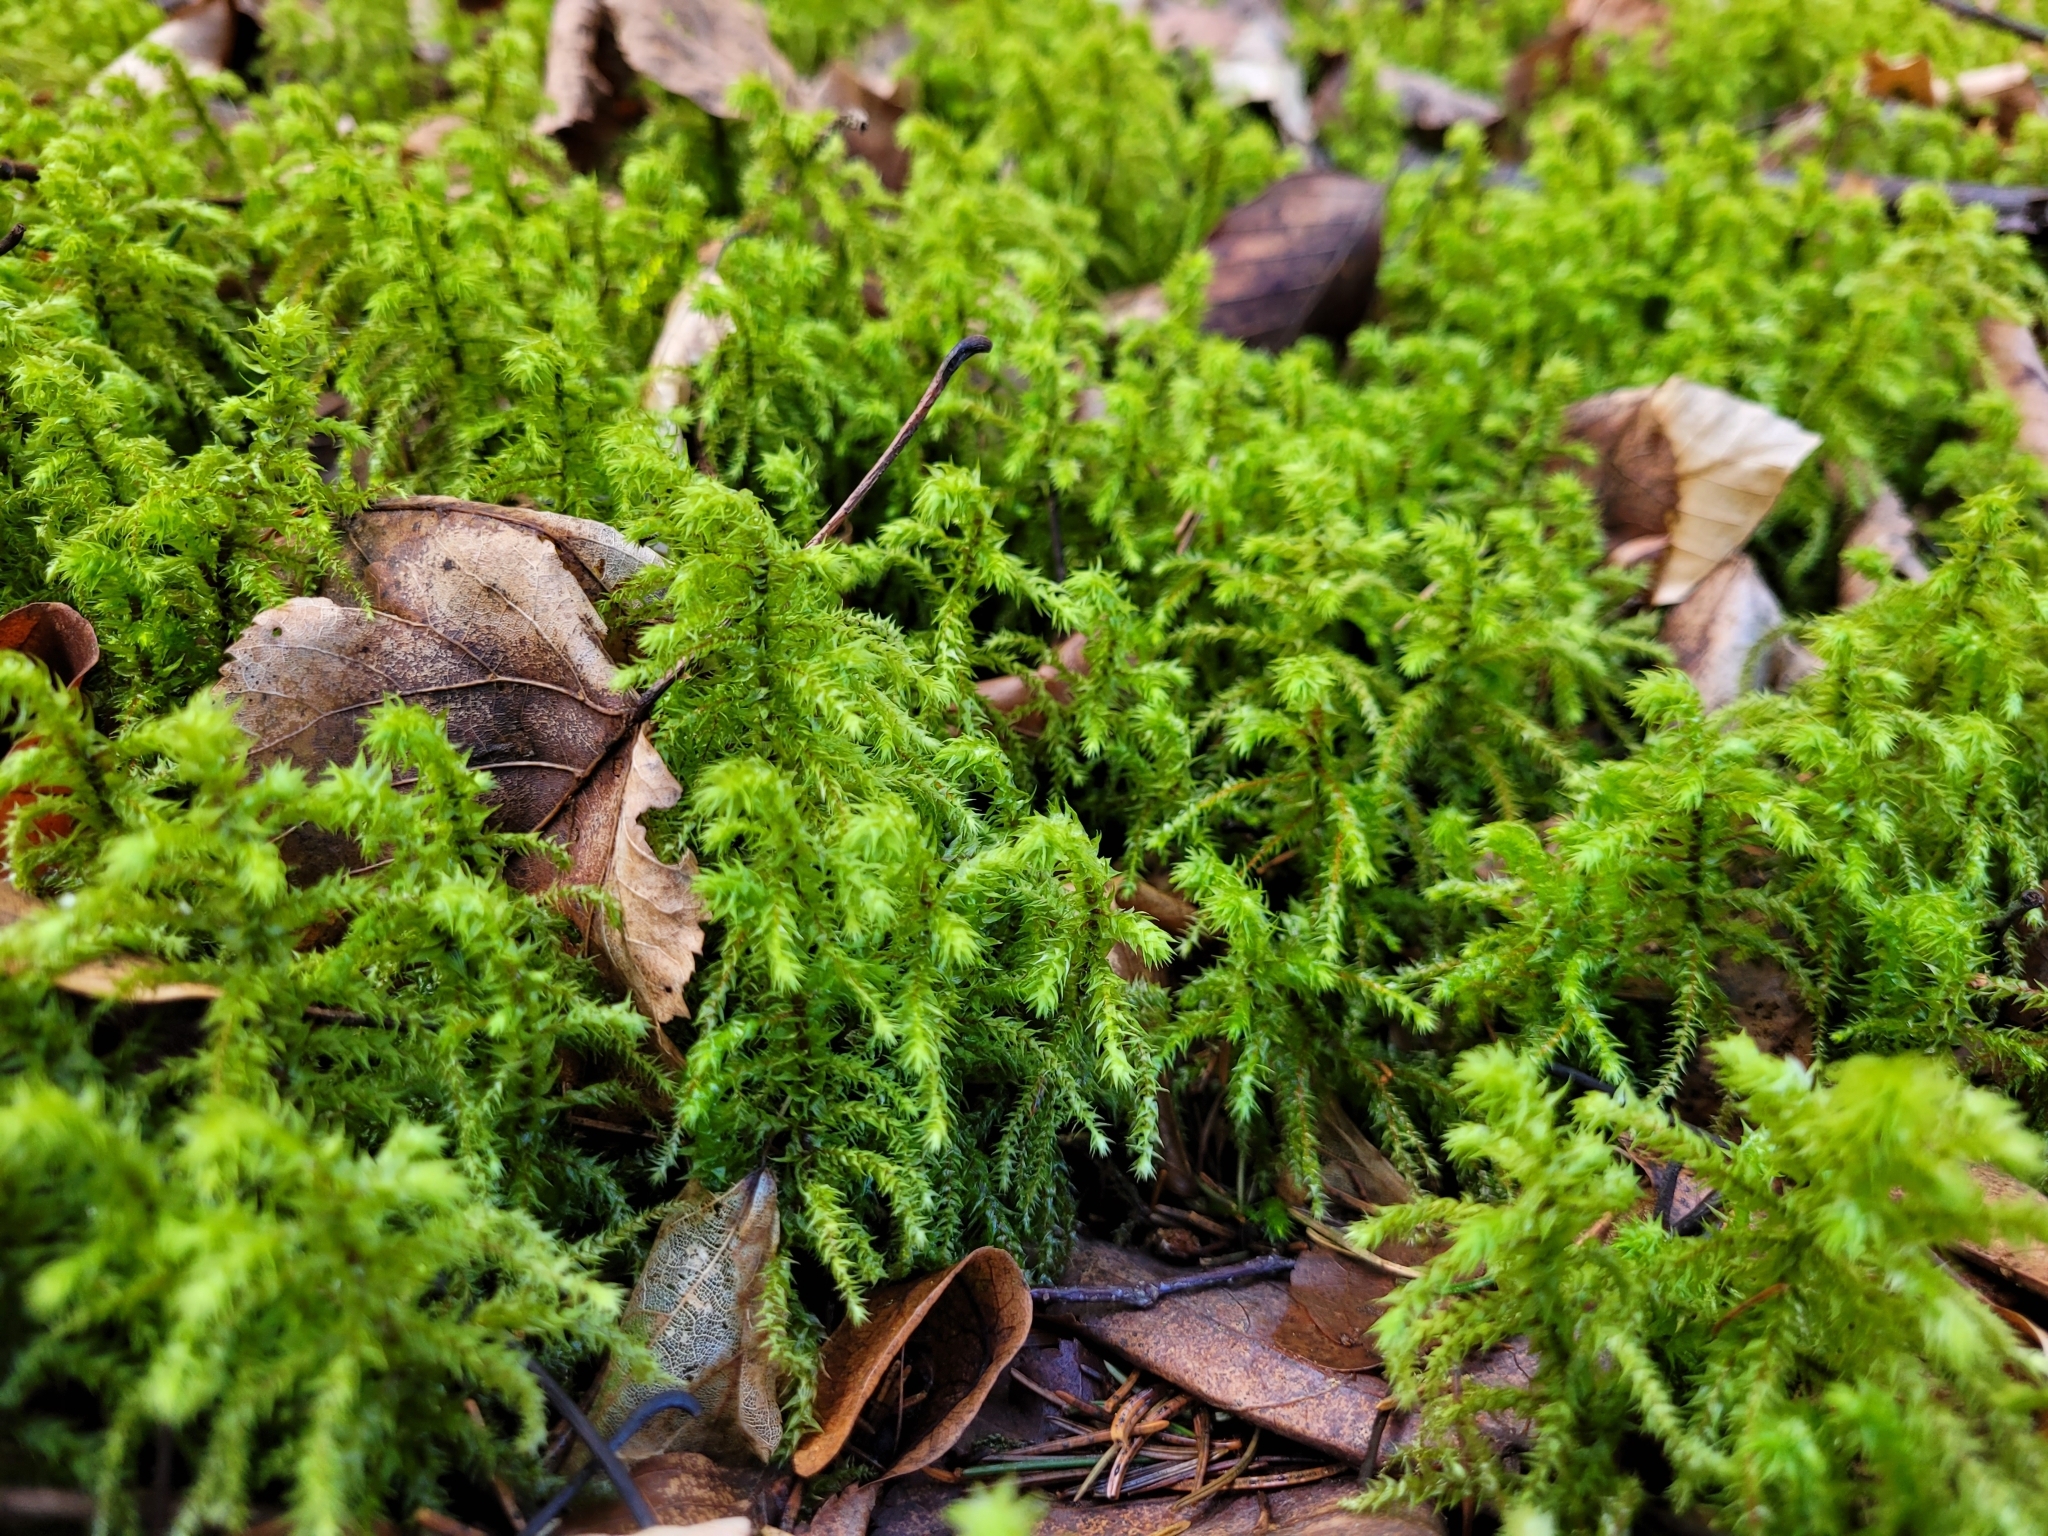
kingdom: Plantae
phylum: Bryophyta
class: Bryopsida
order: Hypnales
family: Hylocomiaceae
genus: Hylocomiadelphus
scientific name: Hylocomiadelphus triquetrus
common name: Rough goose neck moss
